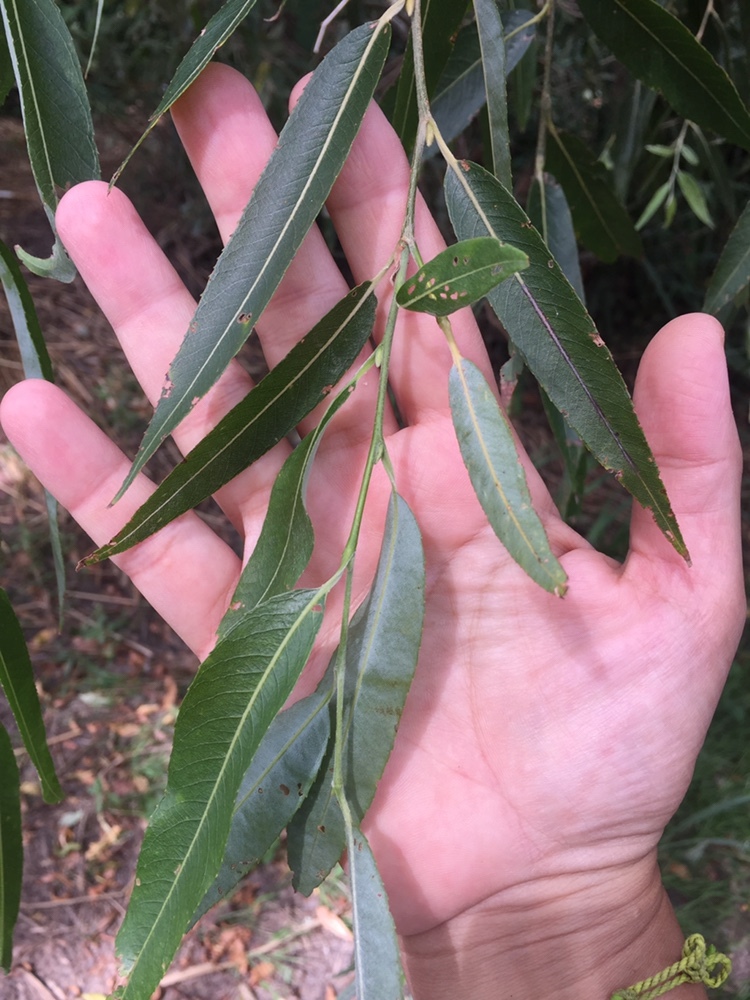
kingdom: Plantae
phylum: Tracheophyta
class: Magnoliopsida
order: Malpighiales
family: Salicaceae
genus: Salix
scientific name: Salix humboldtiana
